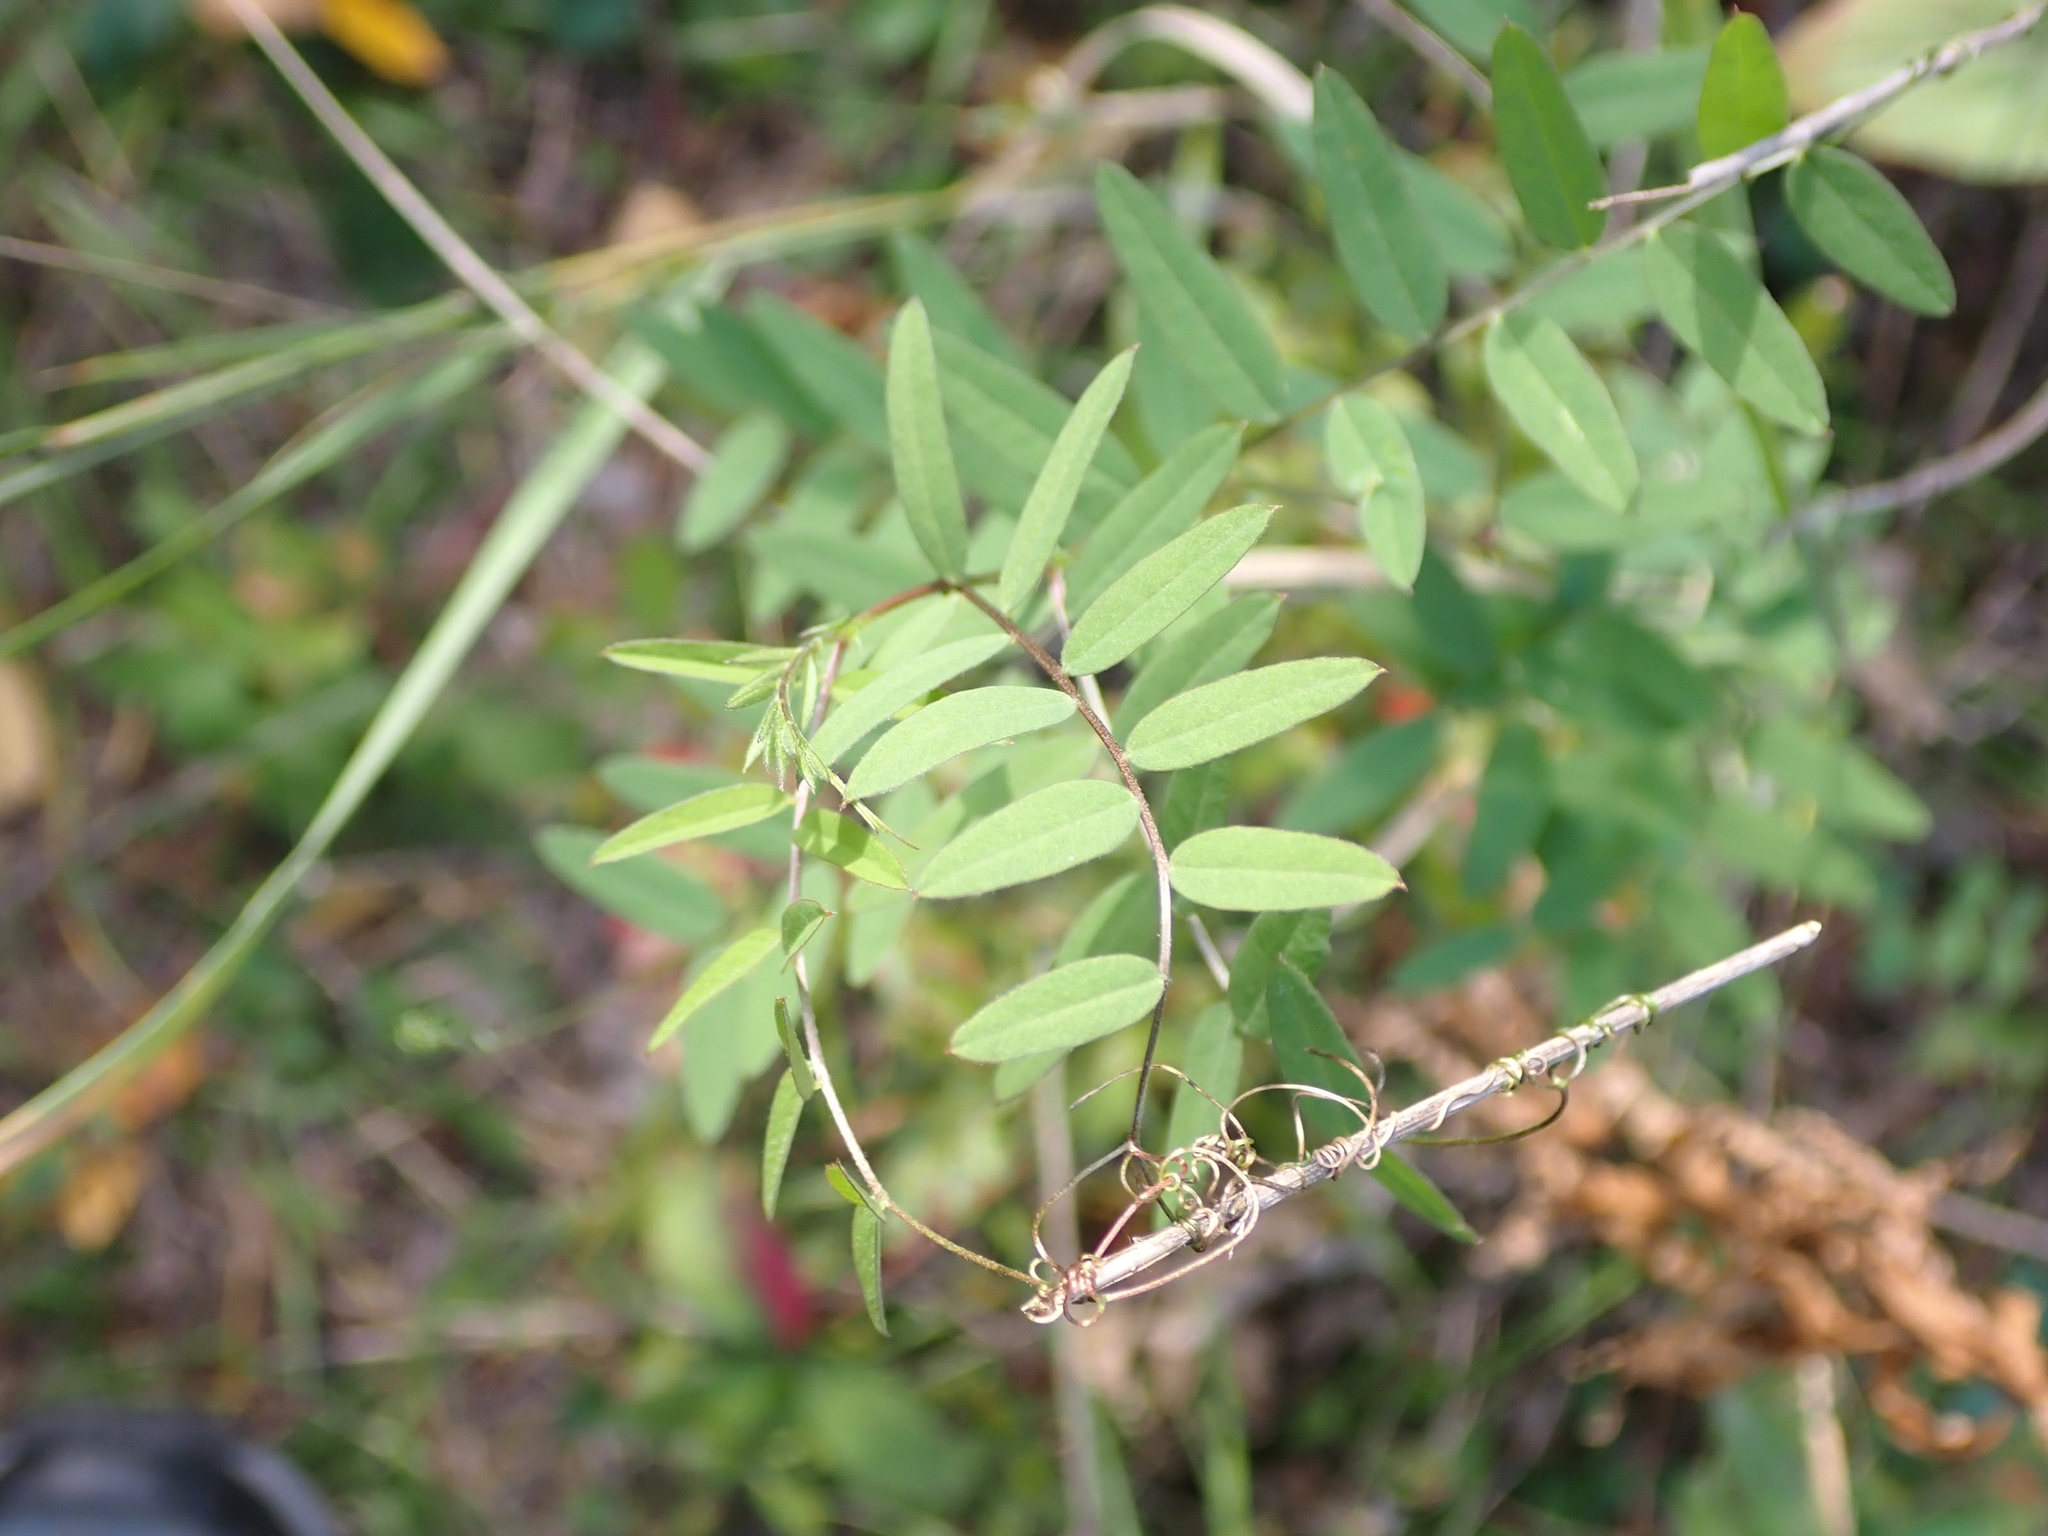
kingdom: Plantae
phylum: Tracheophyta
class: Magnoliopsida
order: Fabales
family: Fabaceae
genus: Vicia
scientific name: Vicia americana
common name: American vetch
